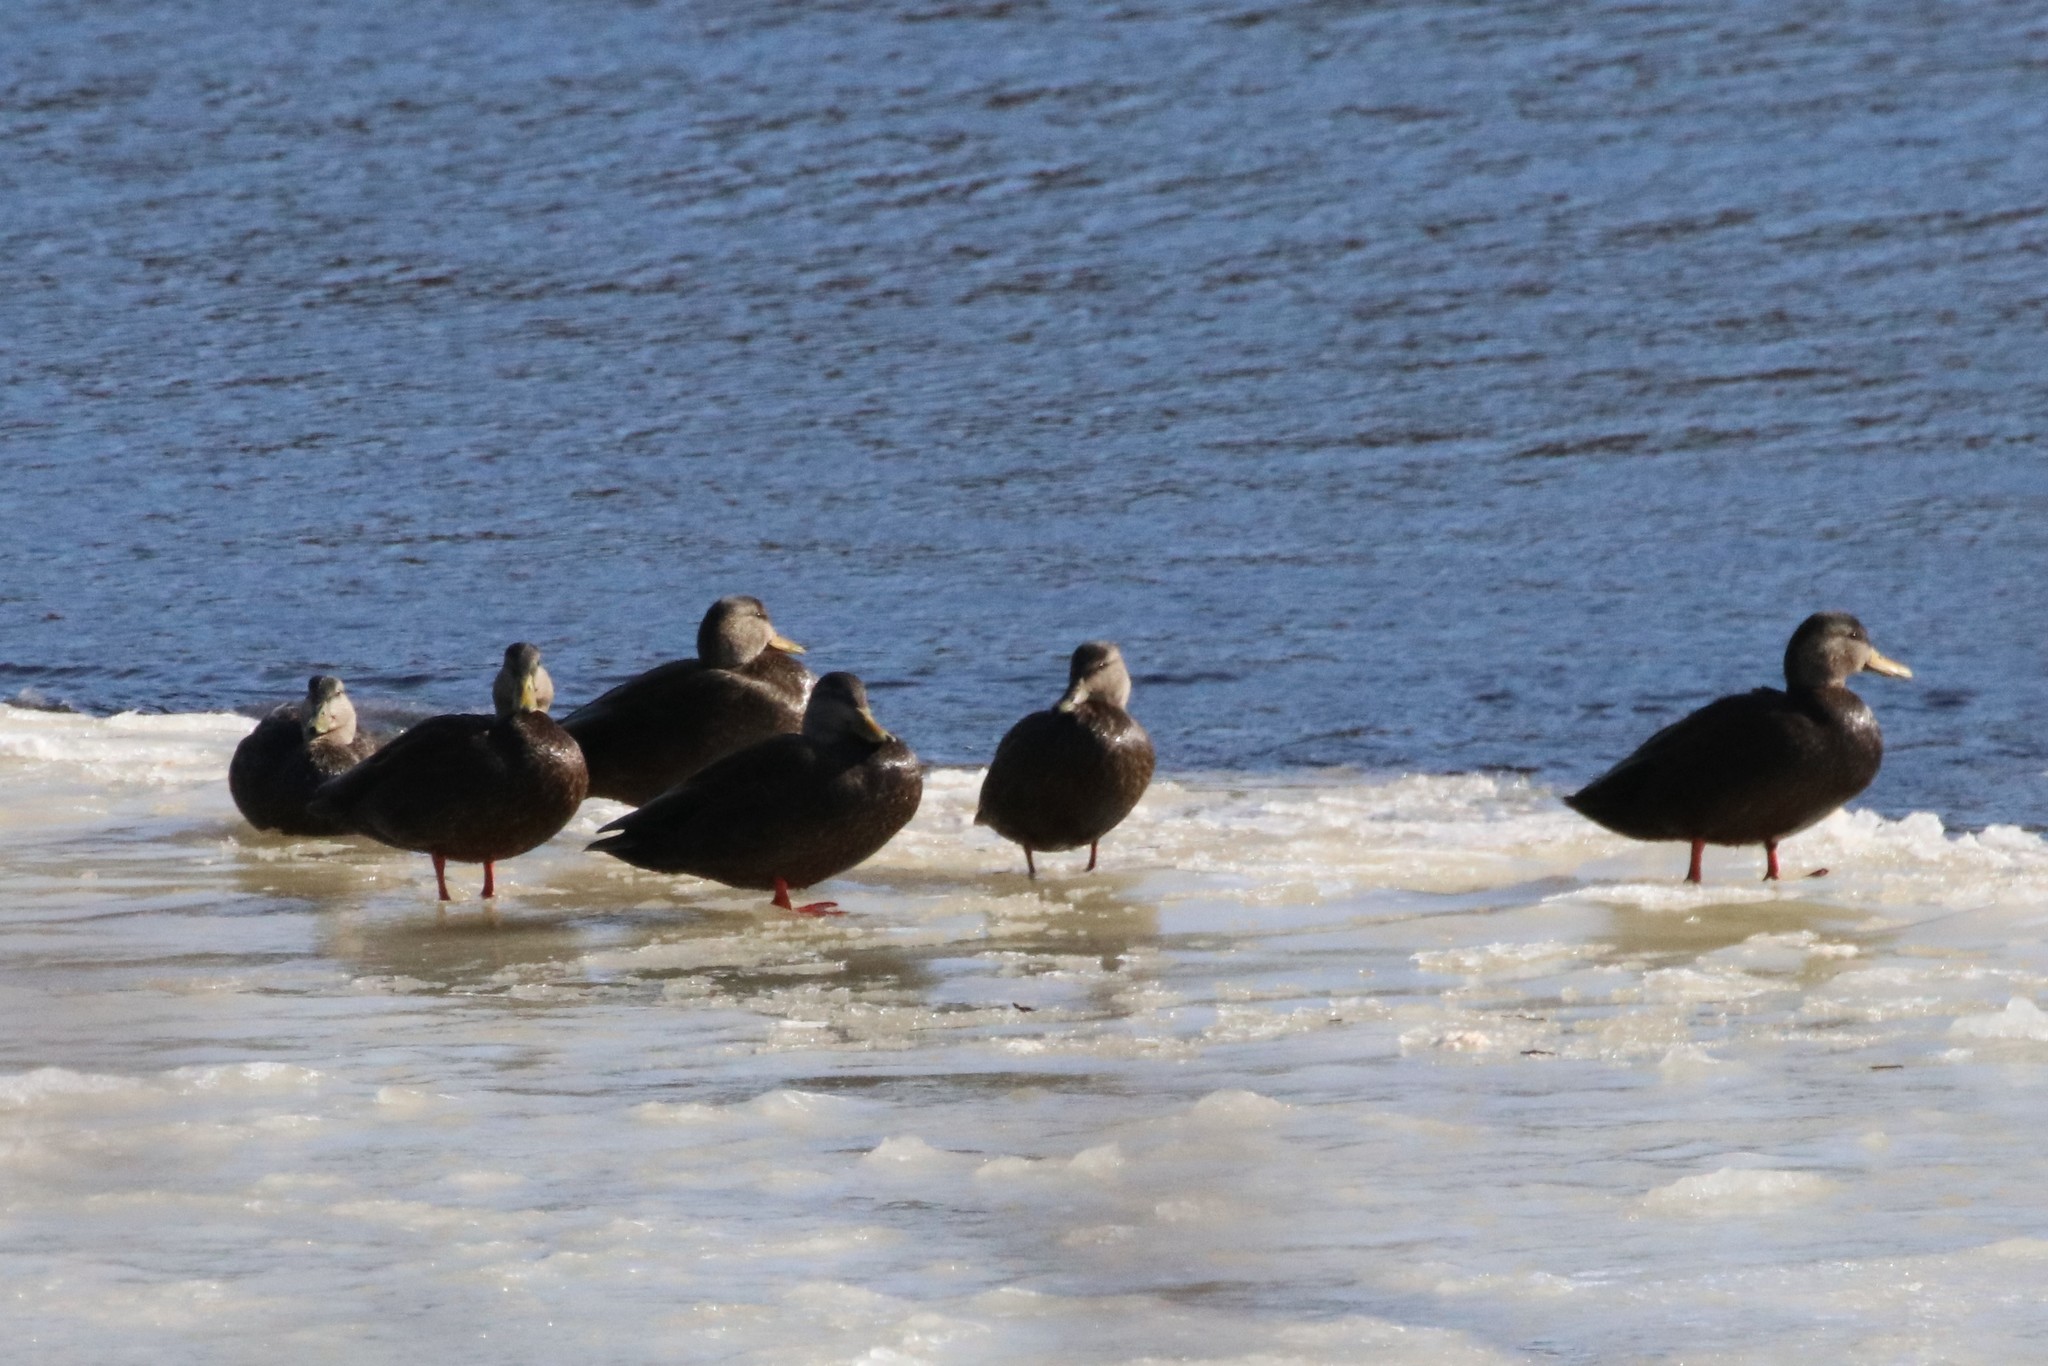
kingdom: Animalia
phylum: Chordata
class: Aves
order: Anseriformes
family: Anatidae
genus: Anas
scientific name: Anas rubripes
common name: American black duck
